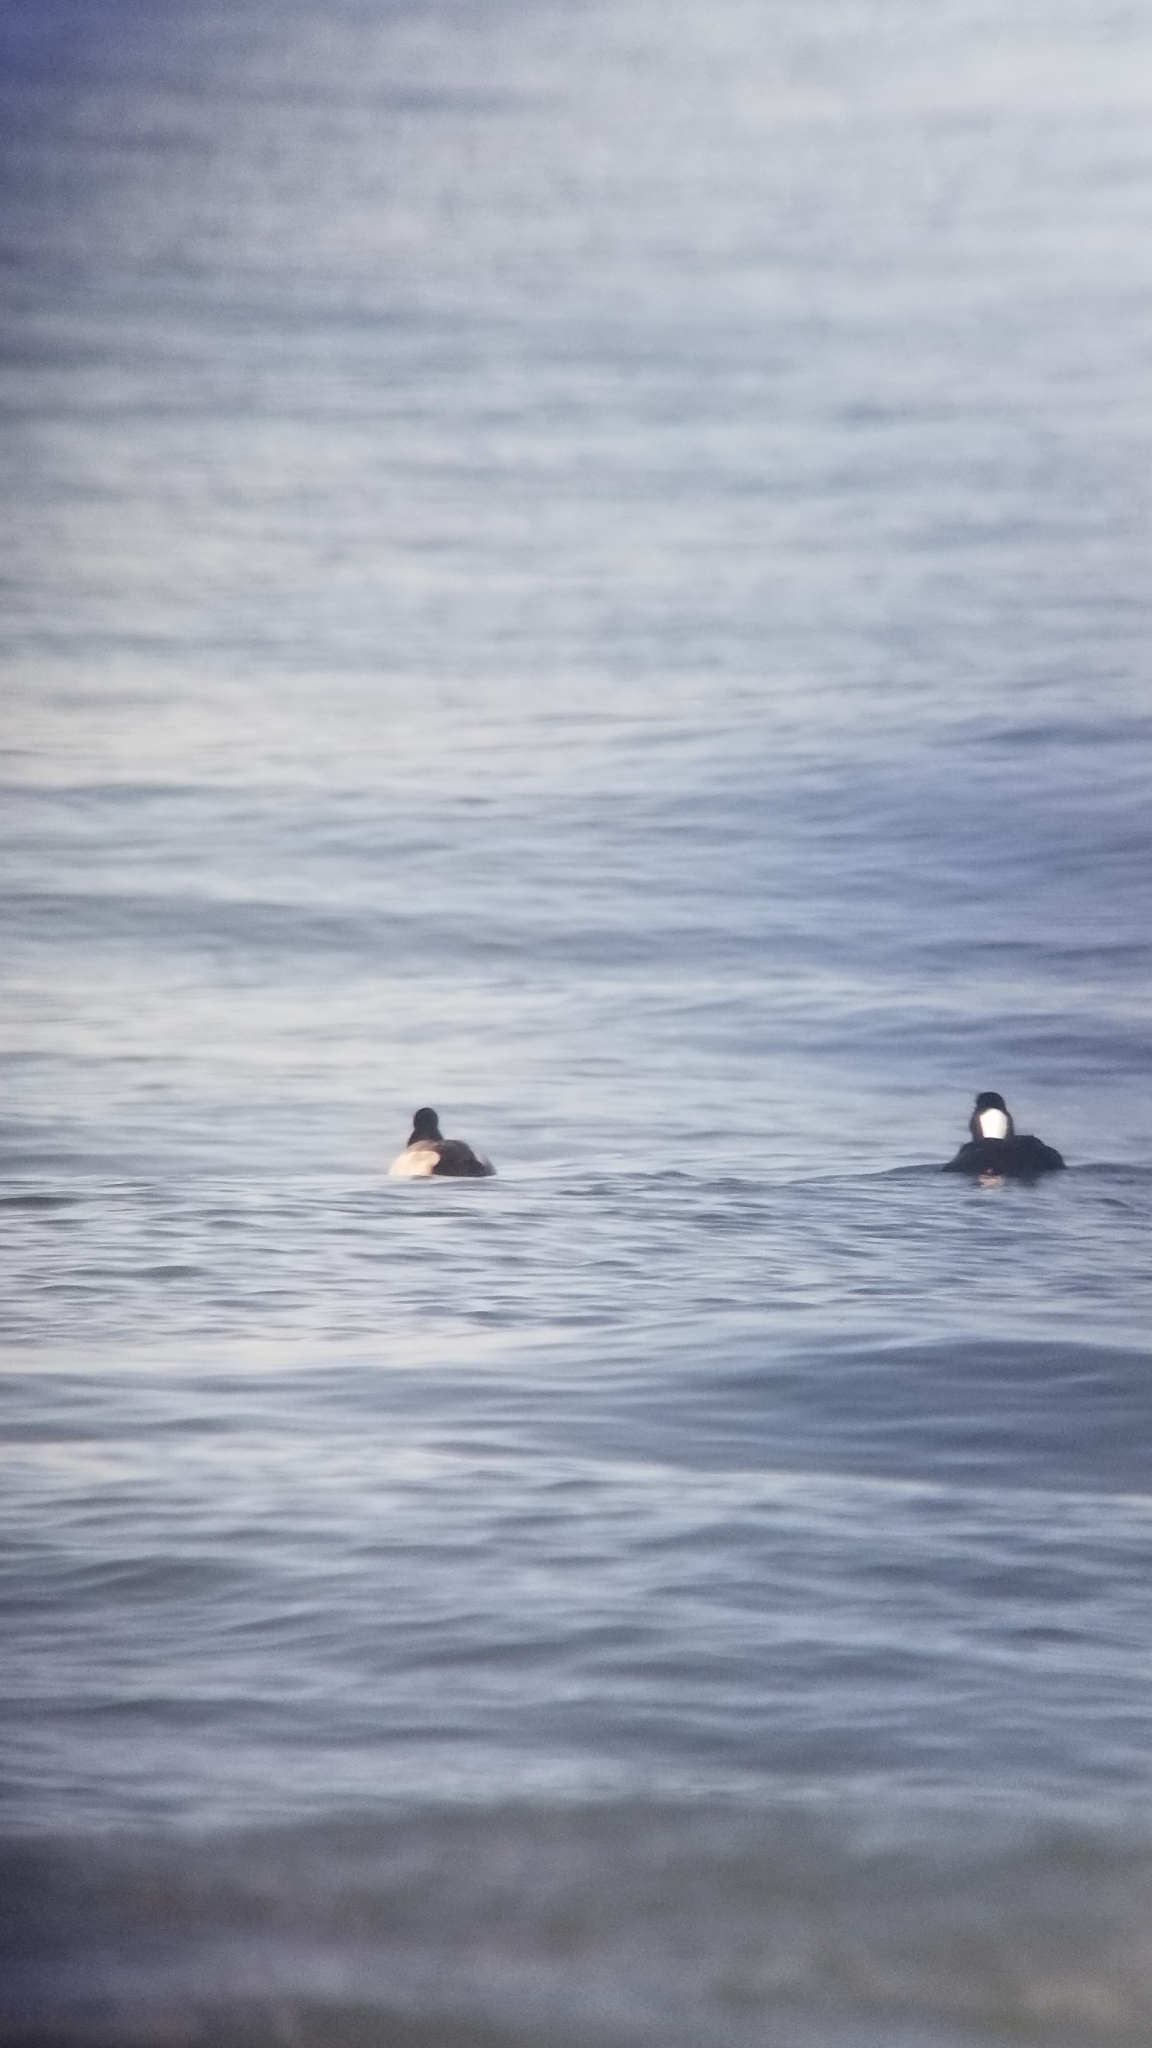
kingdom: Animalia
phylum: Chordata
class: Aves
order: Anseriformes
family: Anatidae
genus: Aythya
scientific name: Aythya affinis
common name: Lesser scaup
